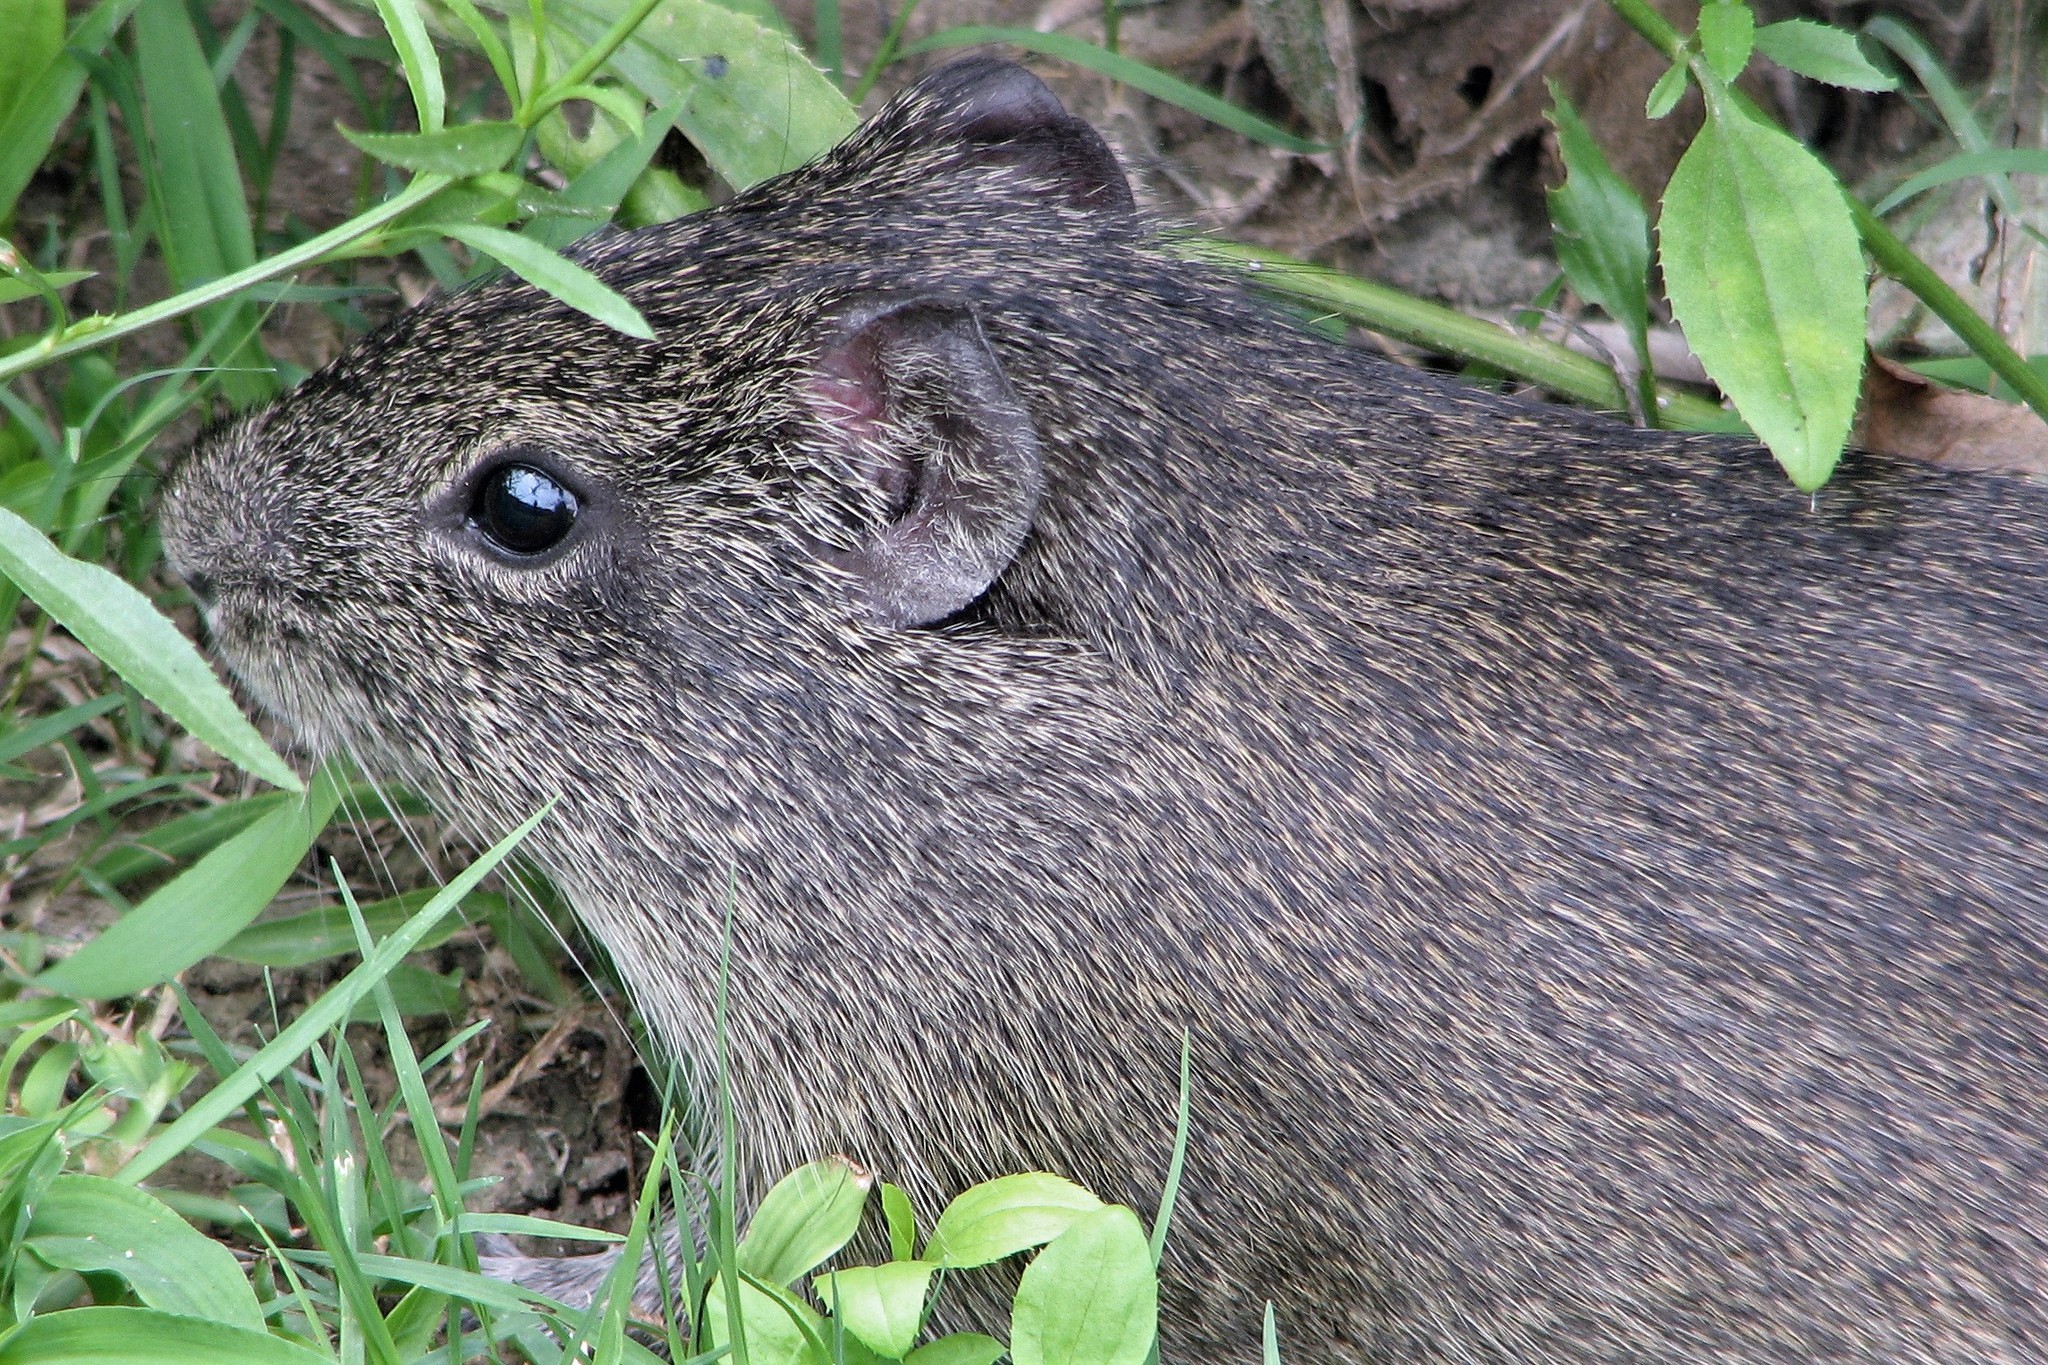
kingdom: Animalia
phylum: Chordata
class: Mammalia
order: Rodentia
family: Caviidae
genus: Cavia
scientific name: Cavia aperea
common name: Brazilian guinea pig
